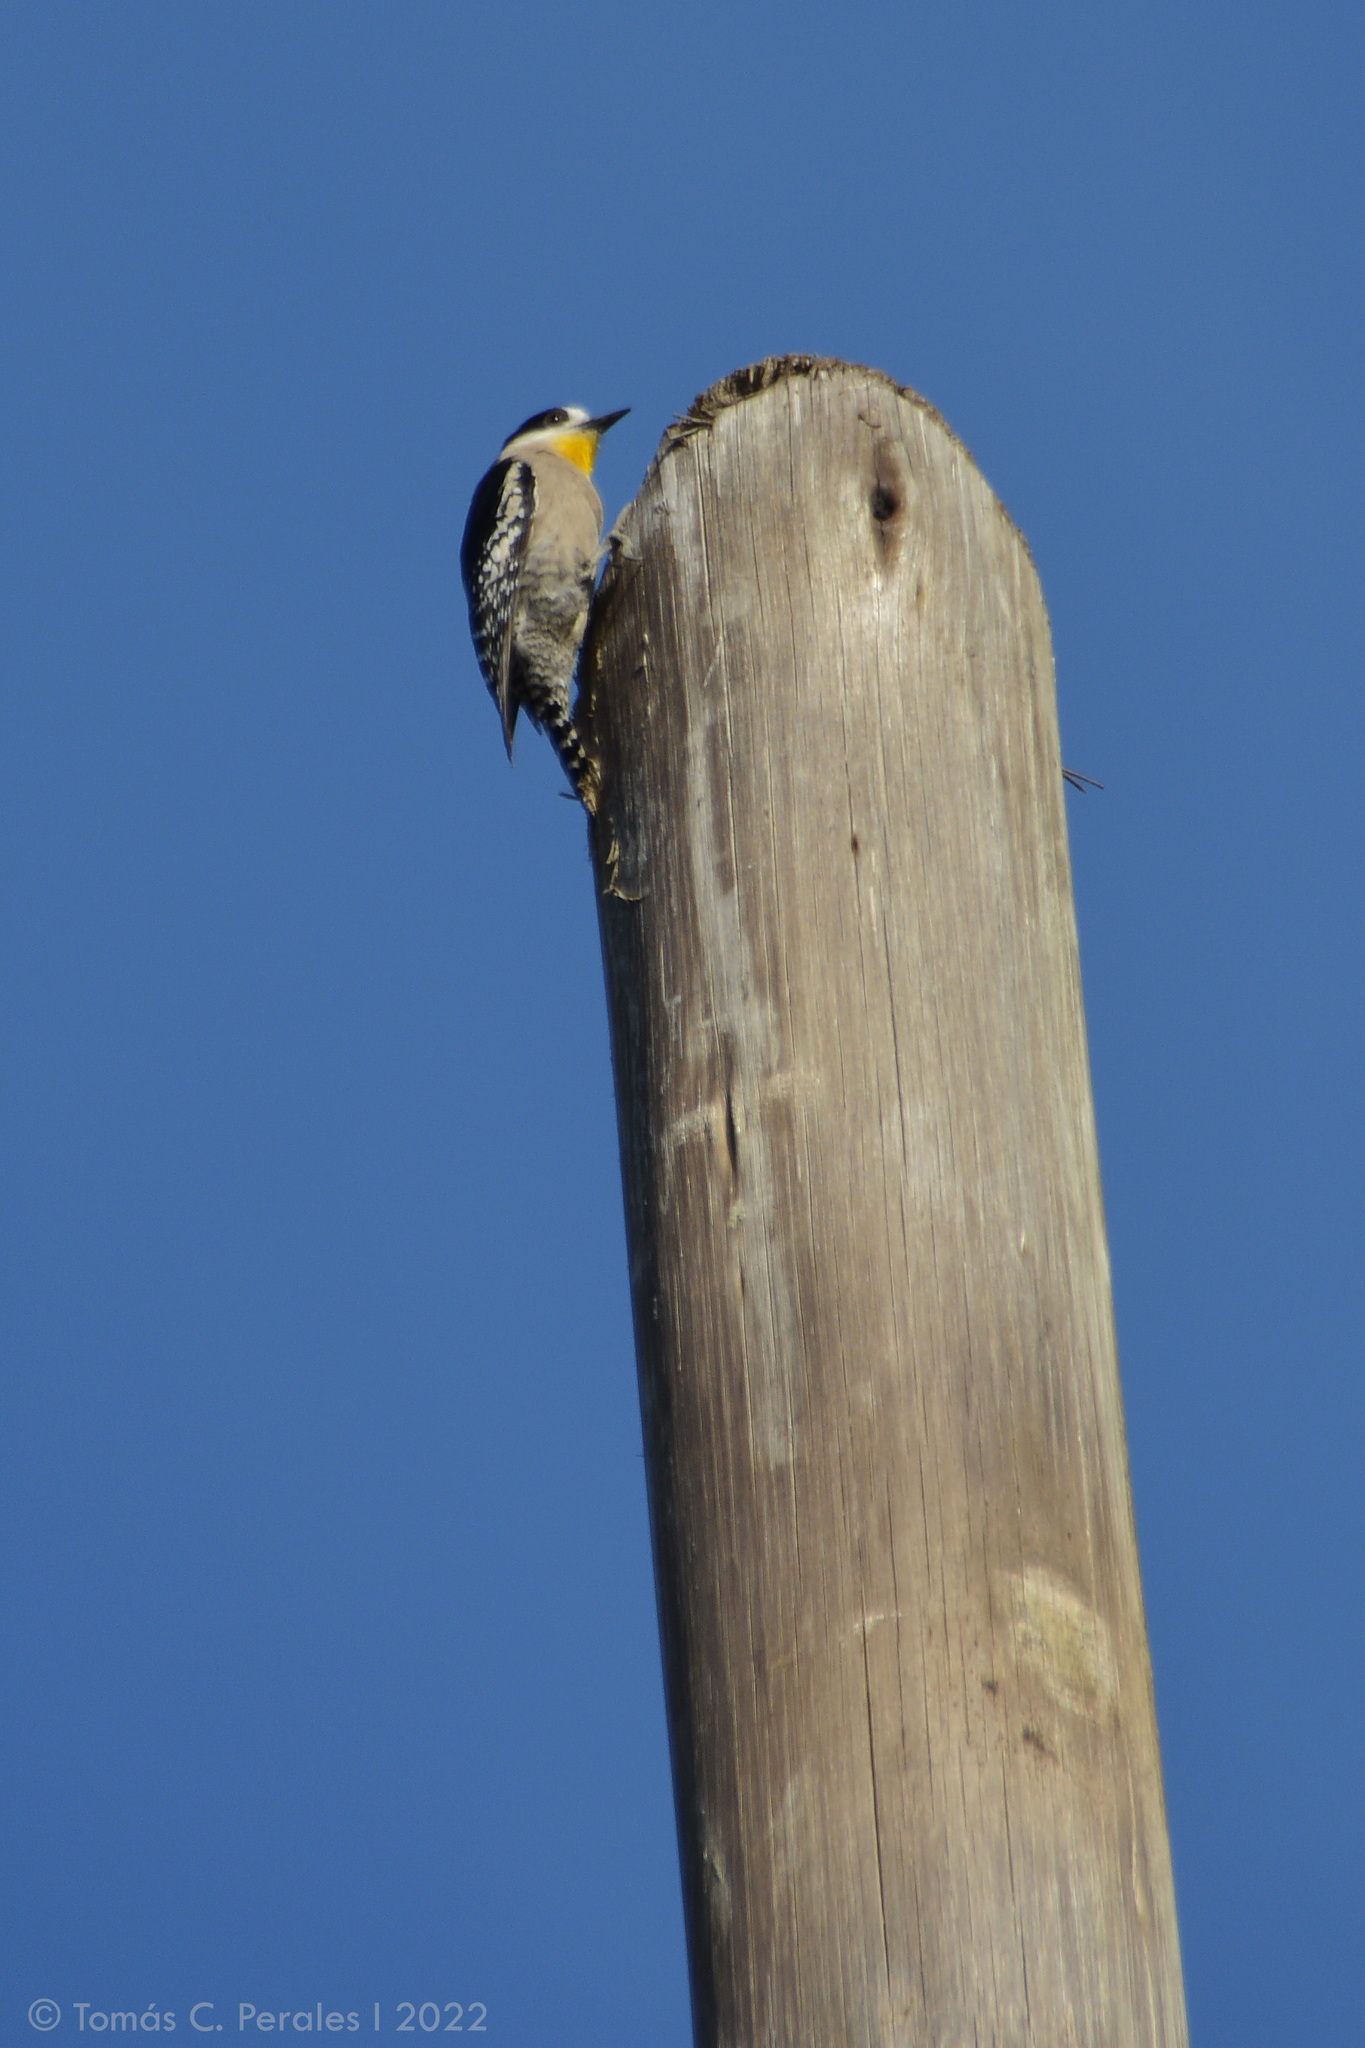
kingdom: Animalia
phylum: Chordata
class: Aves
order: Piciformes
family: Picidae
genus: Melanerpes
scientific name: Melanerpes cactorum
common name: White-fronted woodpecker
